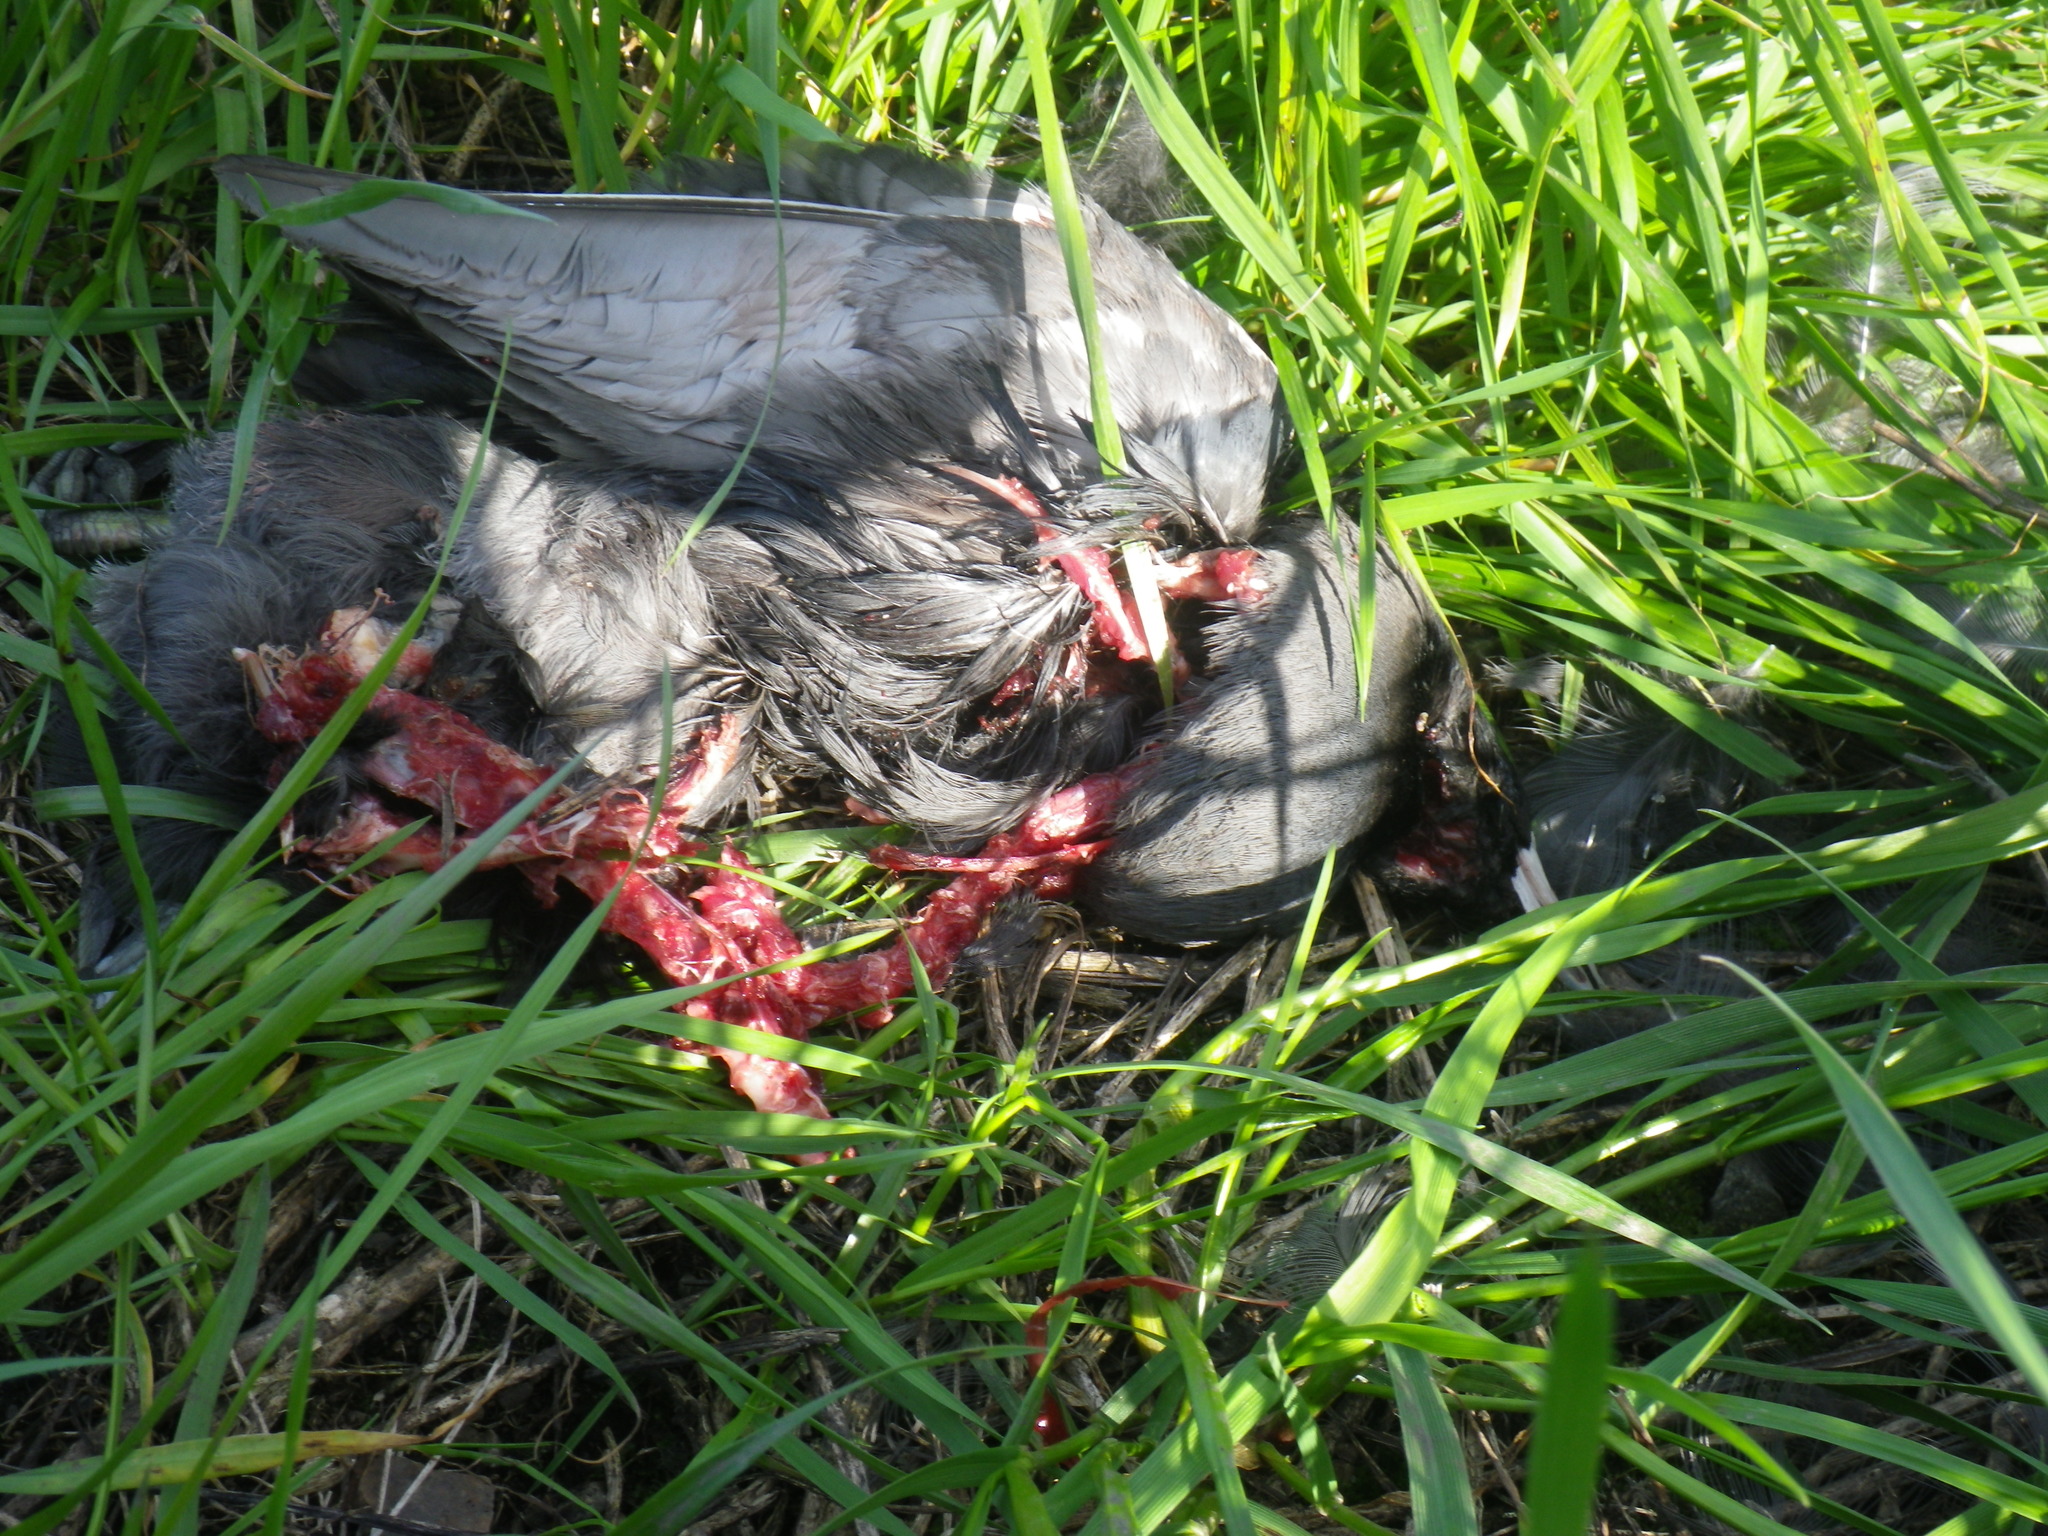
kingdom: Animalia
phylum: Chordata
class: Aves
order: Gruiformes
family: Rallidae
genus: Fulica
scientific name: Fulica americana
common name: American coot
